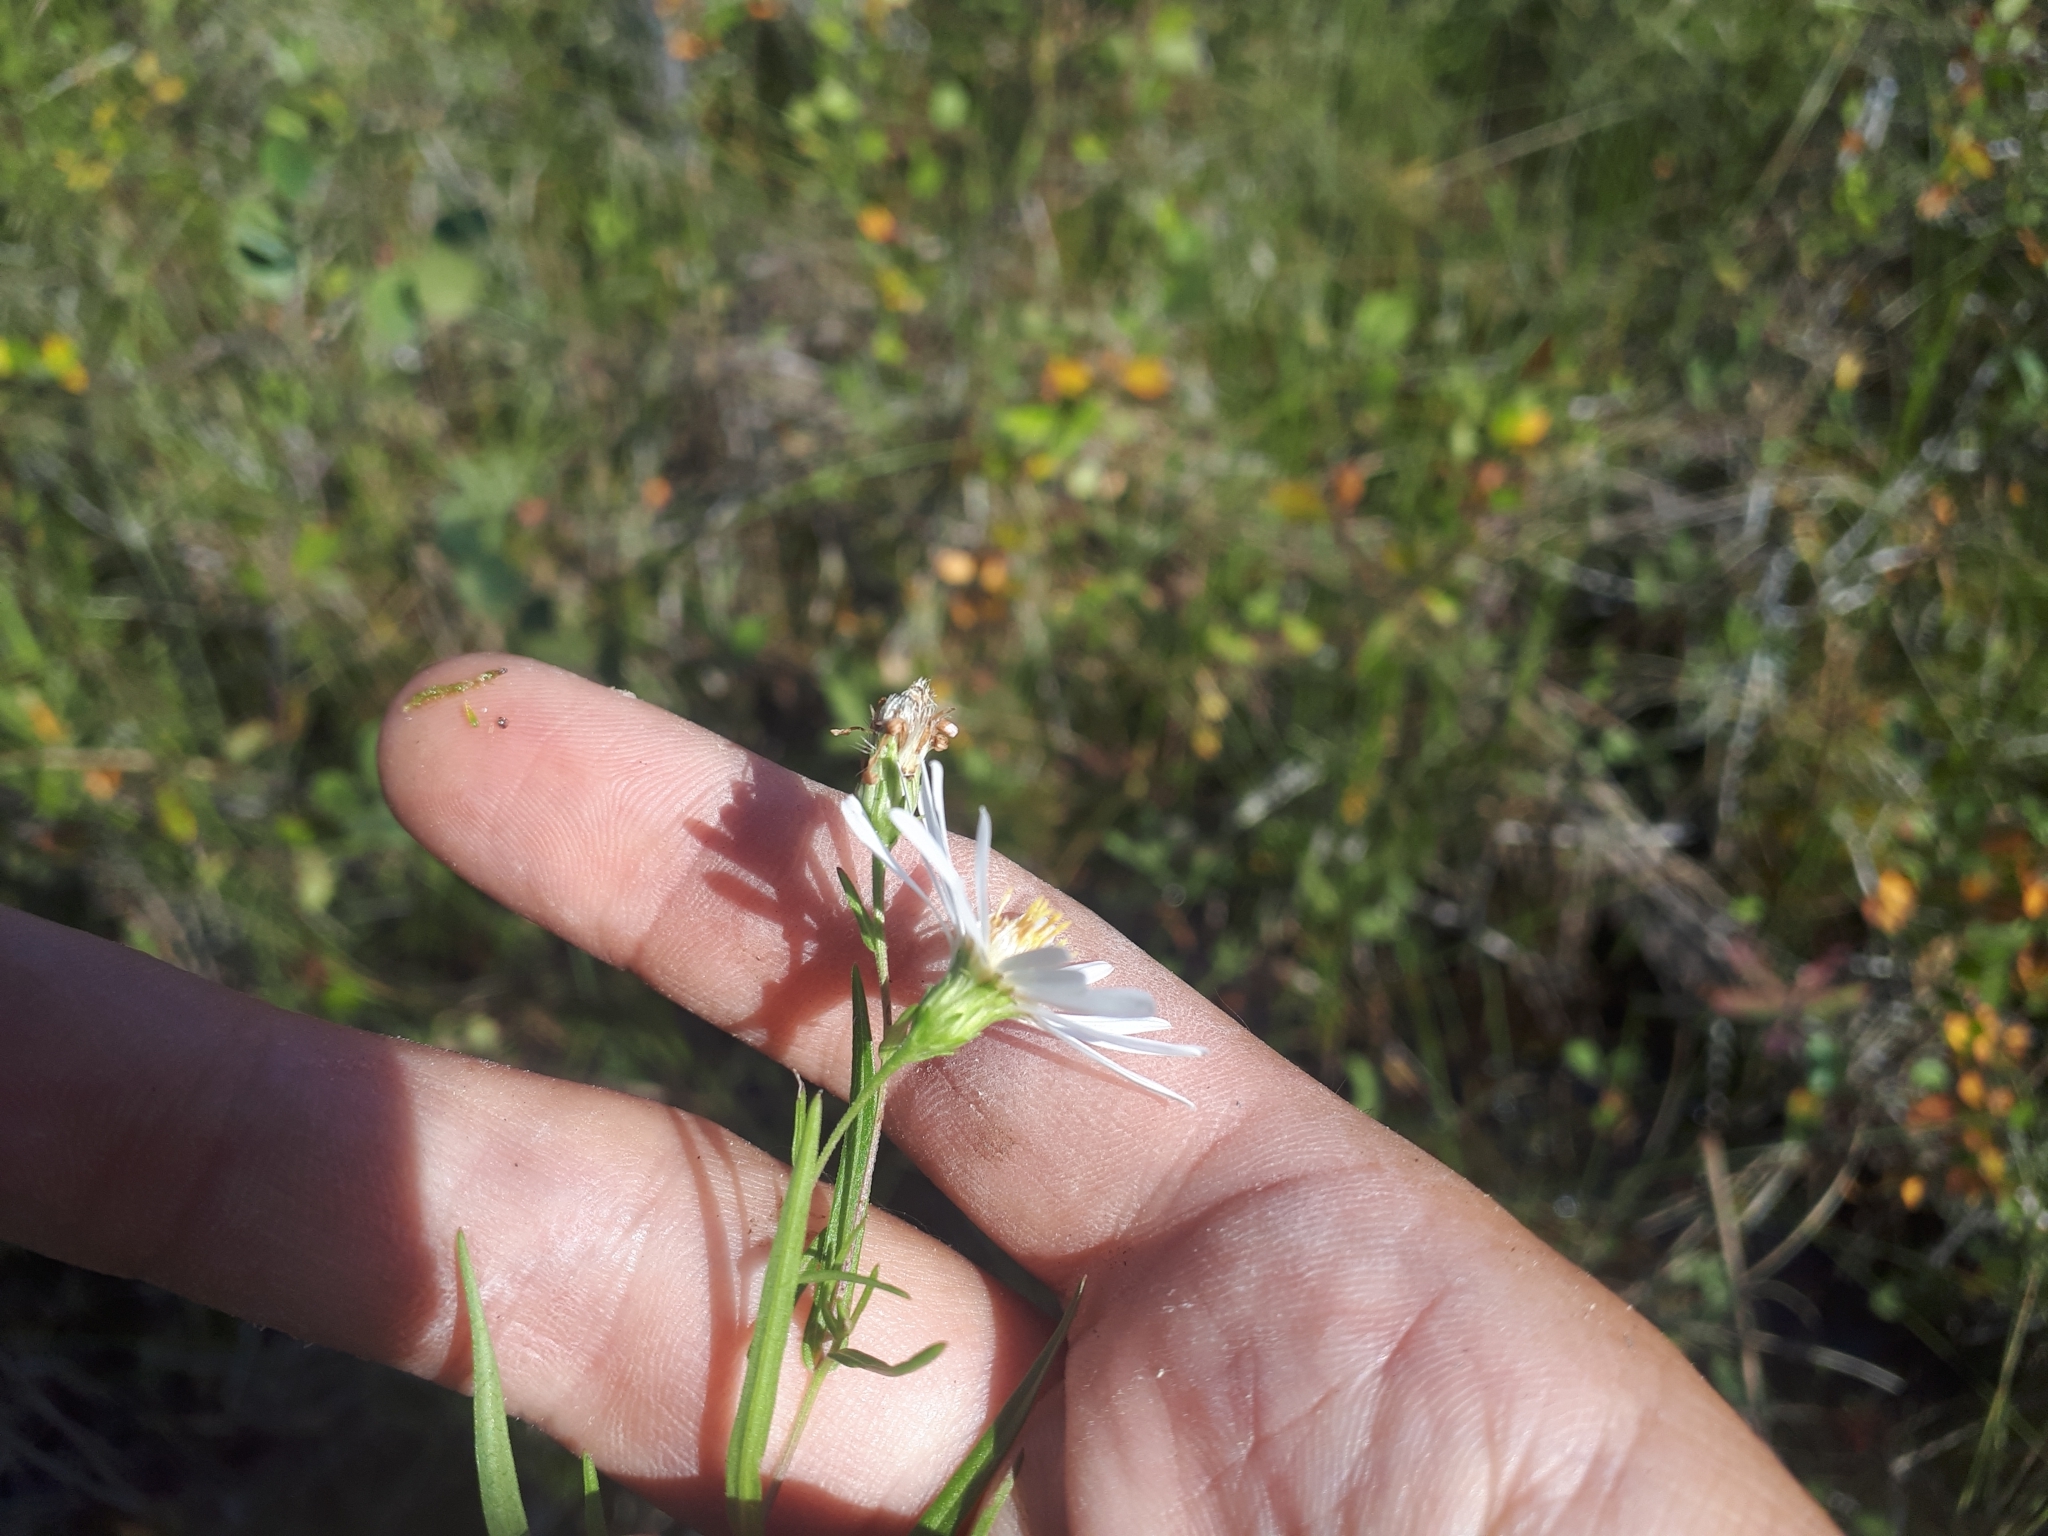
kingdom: Plantae
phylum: Tracheophyta
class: Magnoliopsida
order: Asterales
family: Asteraceae
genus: Symphyotrichum
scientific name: Symphyotrichum boreale
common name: Northern bog aster
